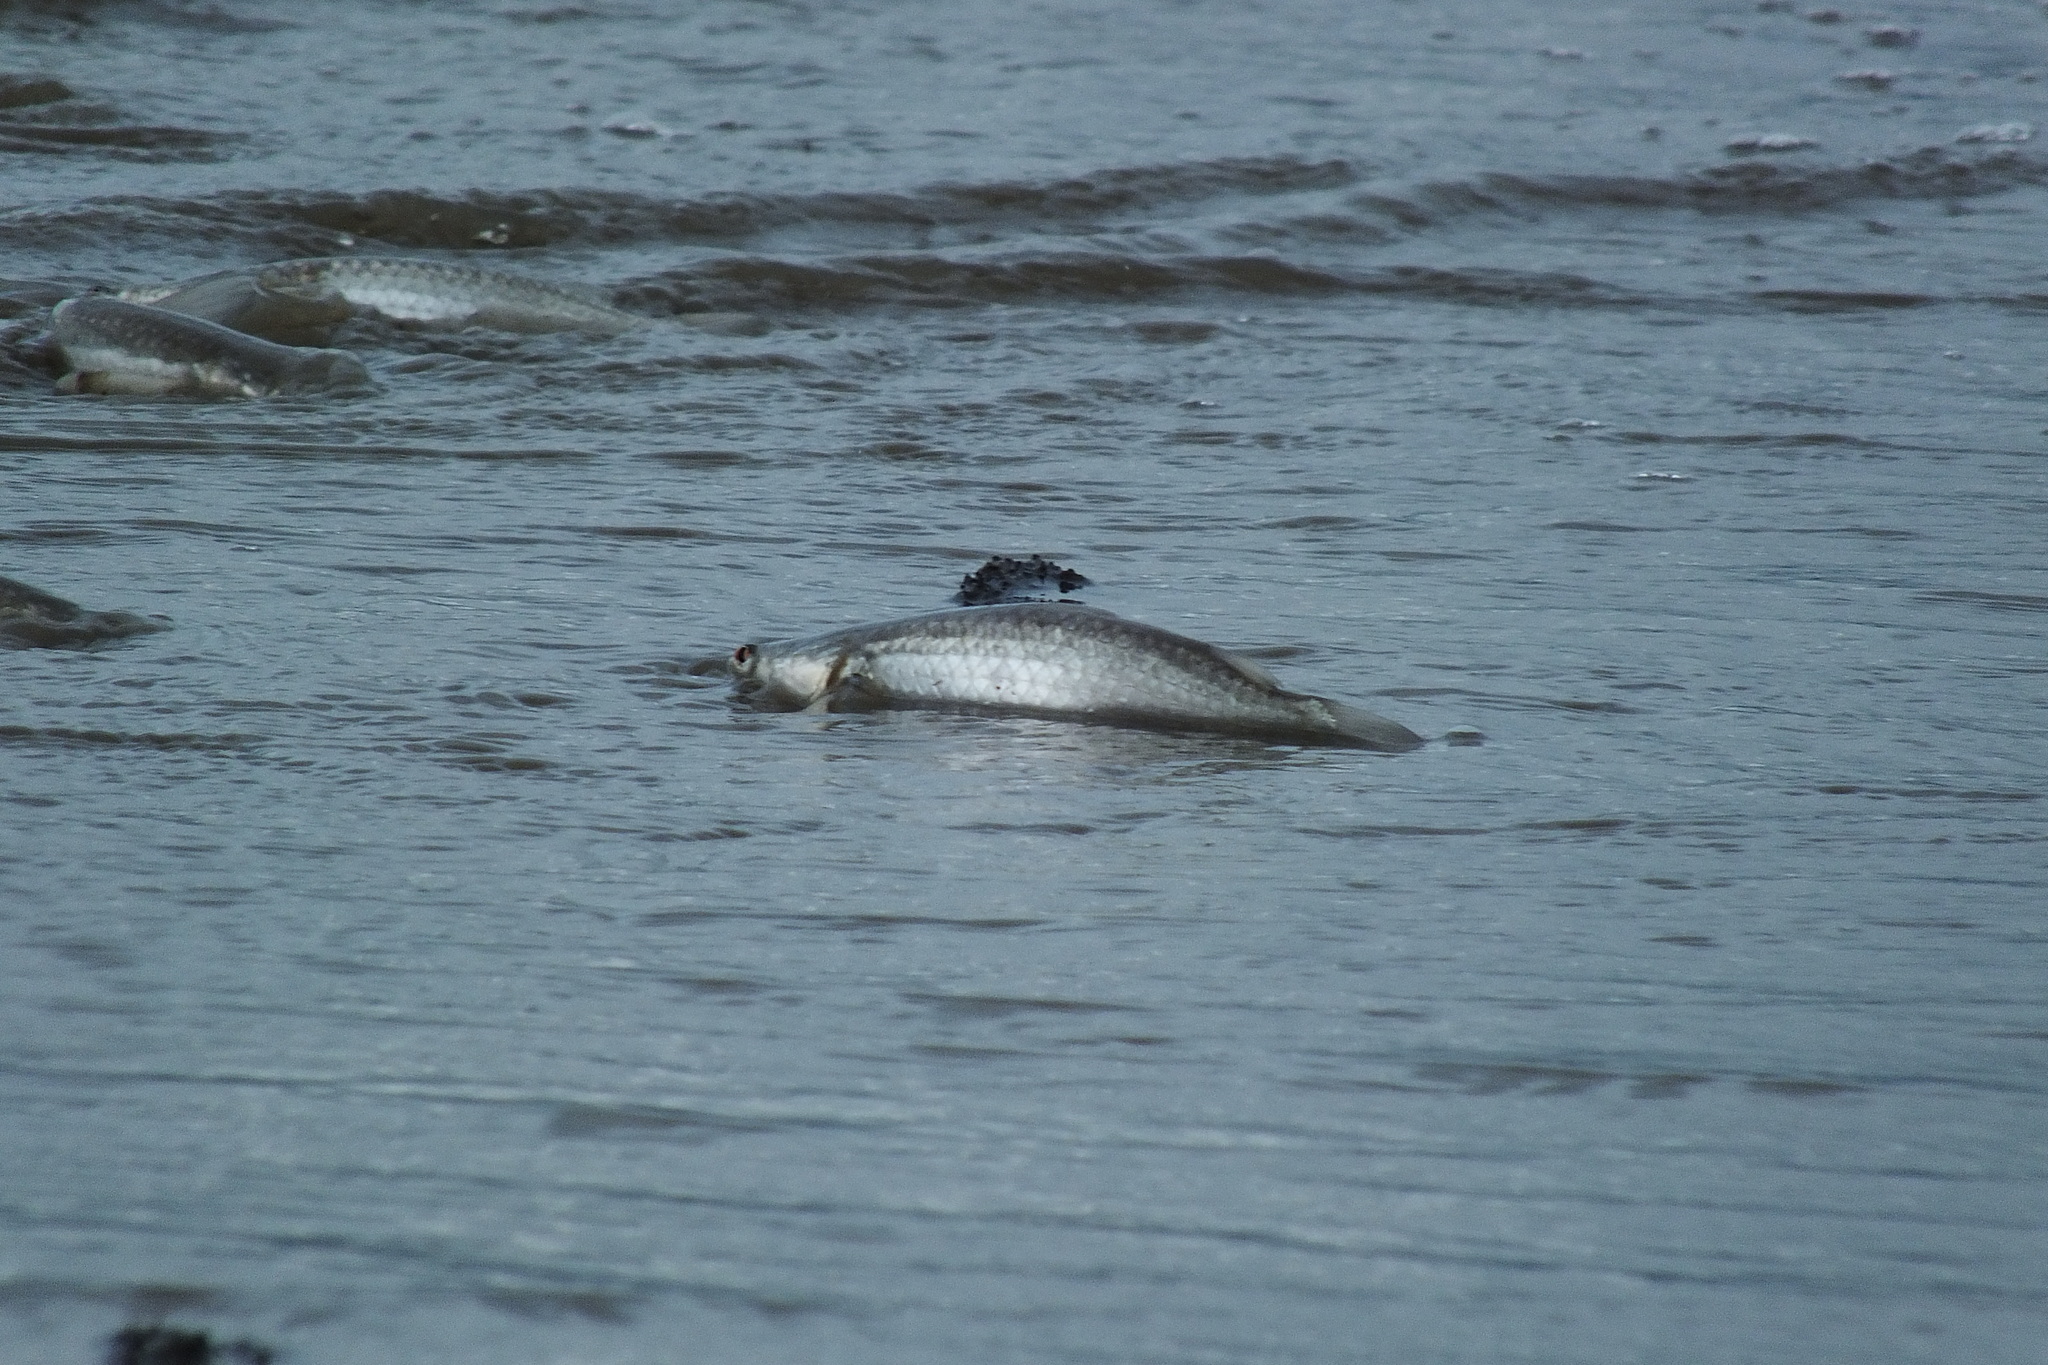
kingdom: Animalia
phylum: Chordata
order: Mugiliformes
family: Mugilidae
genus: Squalomugil
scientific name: Squalomugil nasutus
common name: Mud mullet
